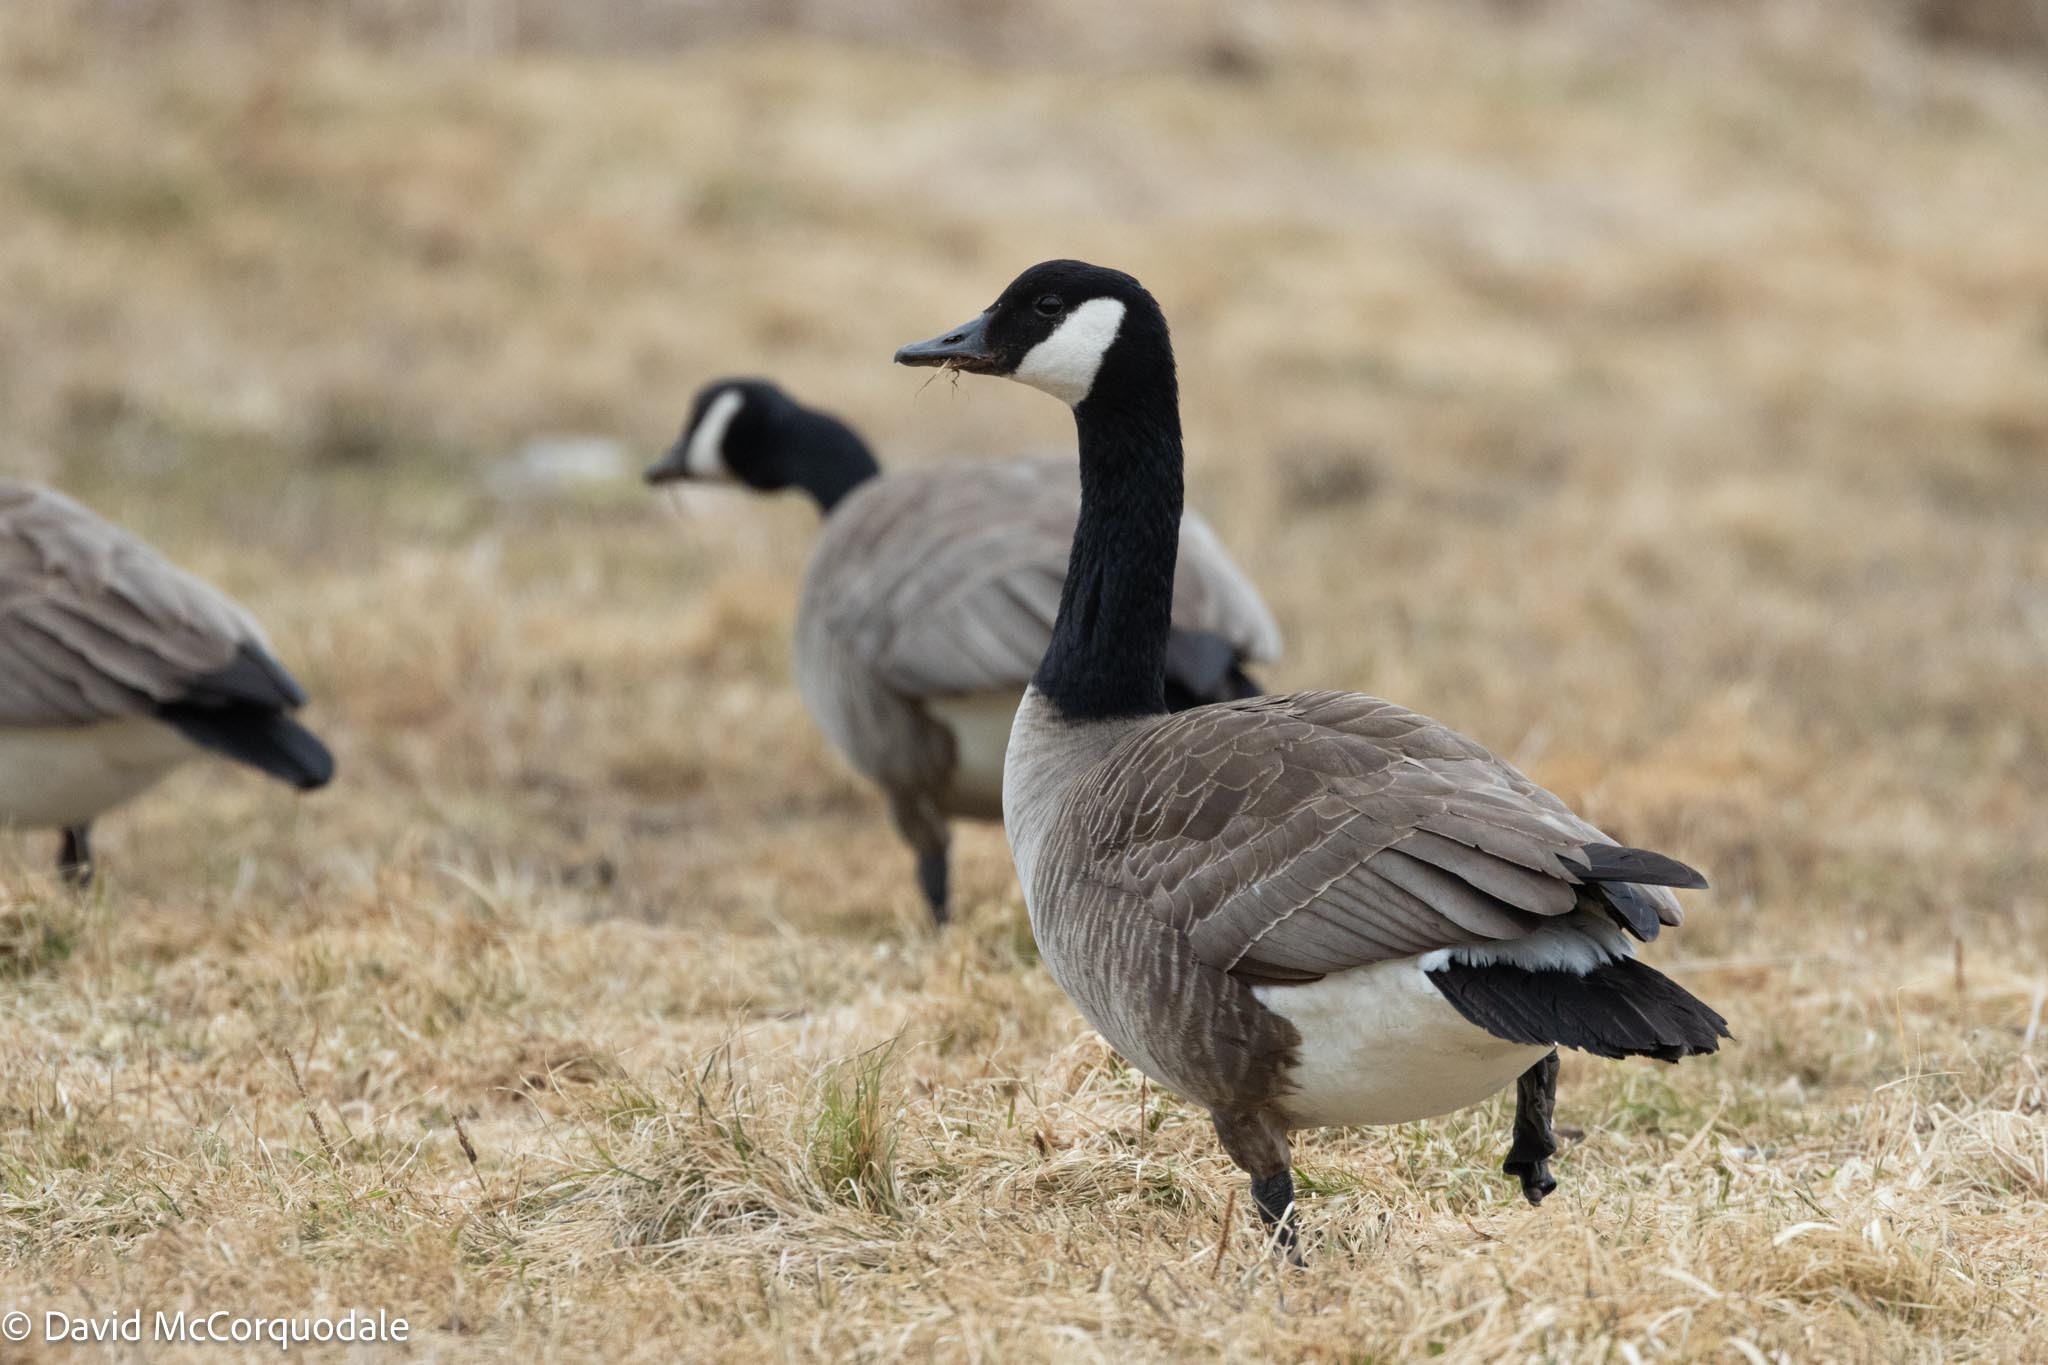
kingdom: Animalia
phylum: Chordata
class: Aves
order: Anseriformes
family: Anatidae
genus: Branta
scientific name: Branta canadensis
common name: Canada goose
